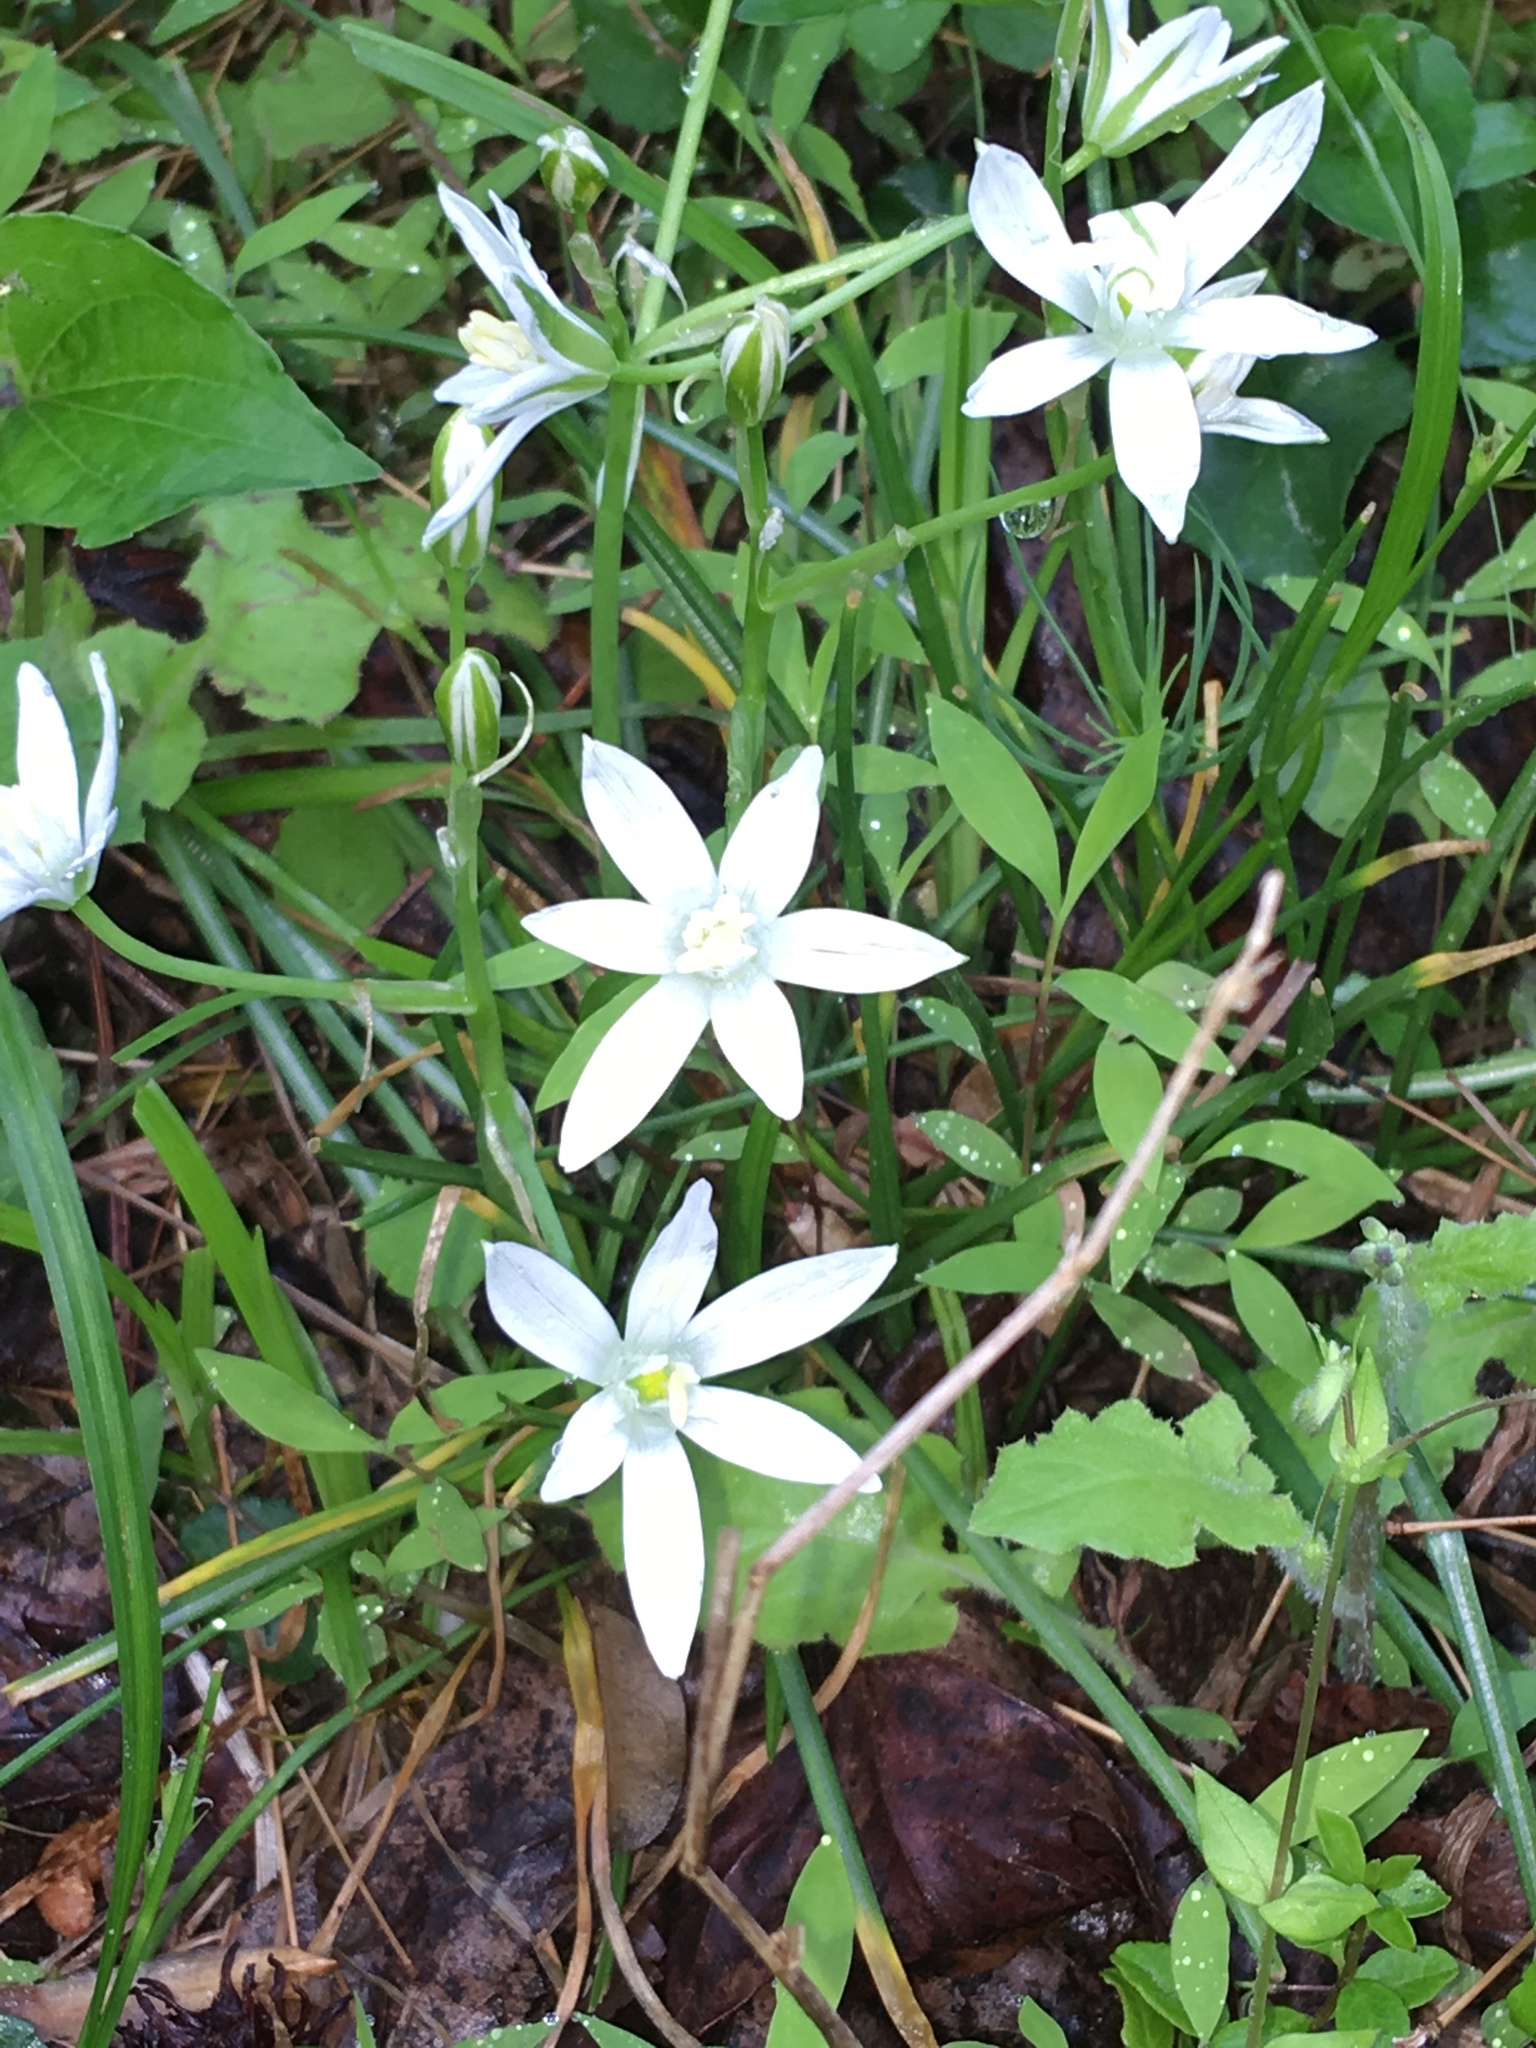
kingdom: Plantae
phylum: Tracheophyta
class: Liliopsida
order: Asparagales
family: Asparagaceae
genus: Ornithogalum
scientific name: Ornithogalum umbellatum
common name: Garden star-of-bethlehem
